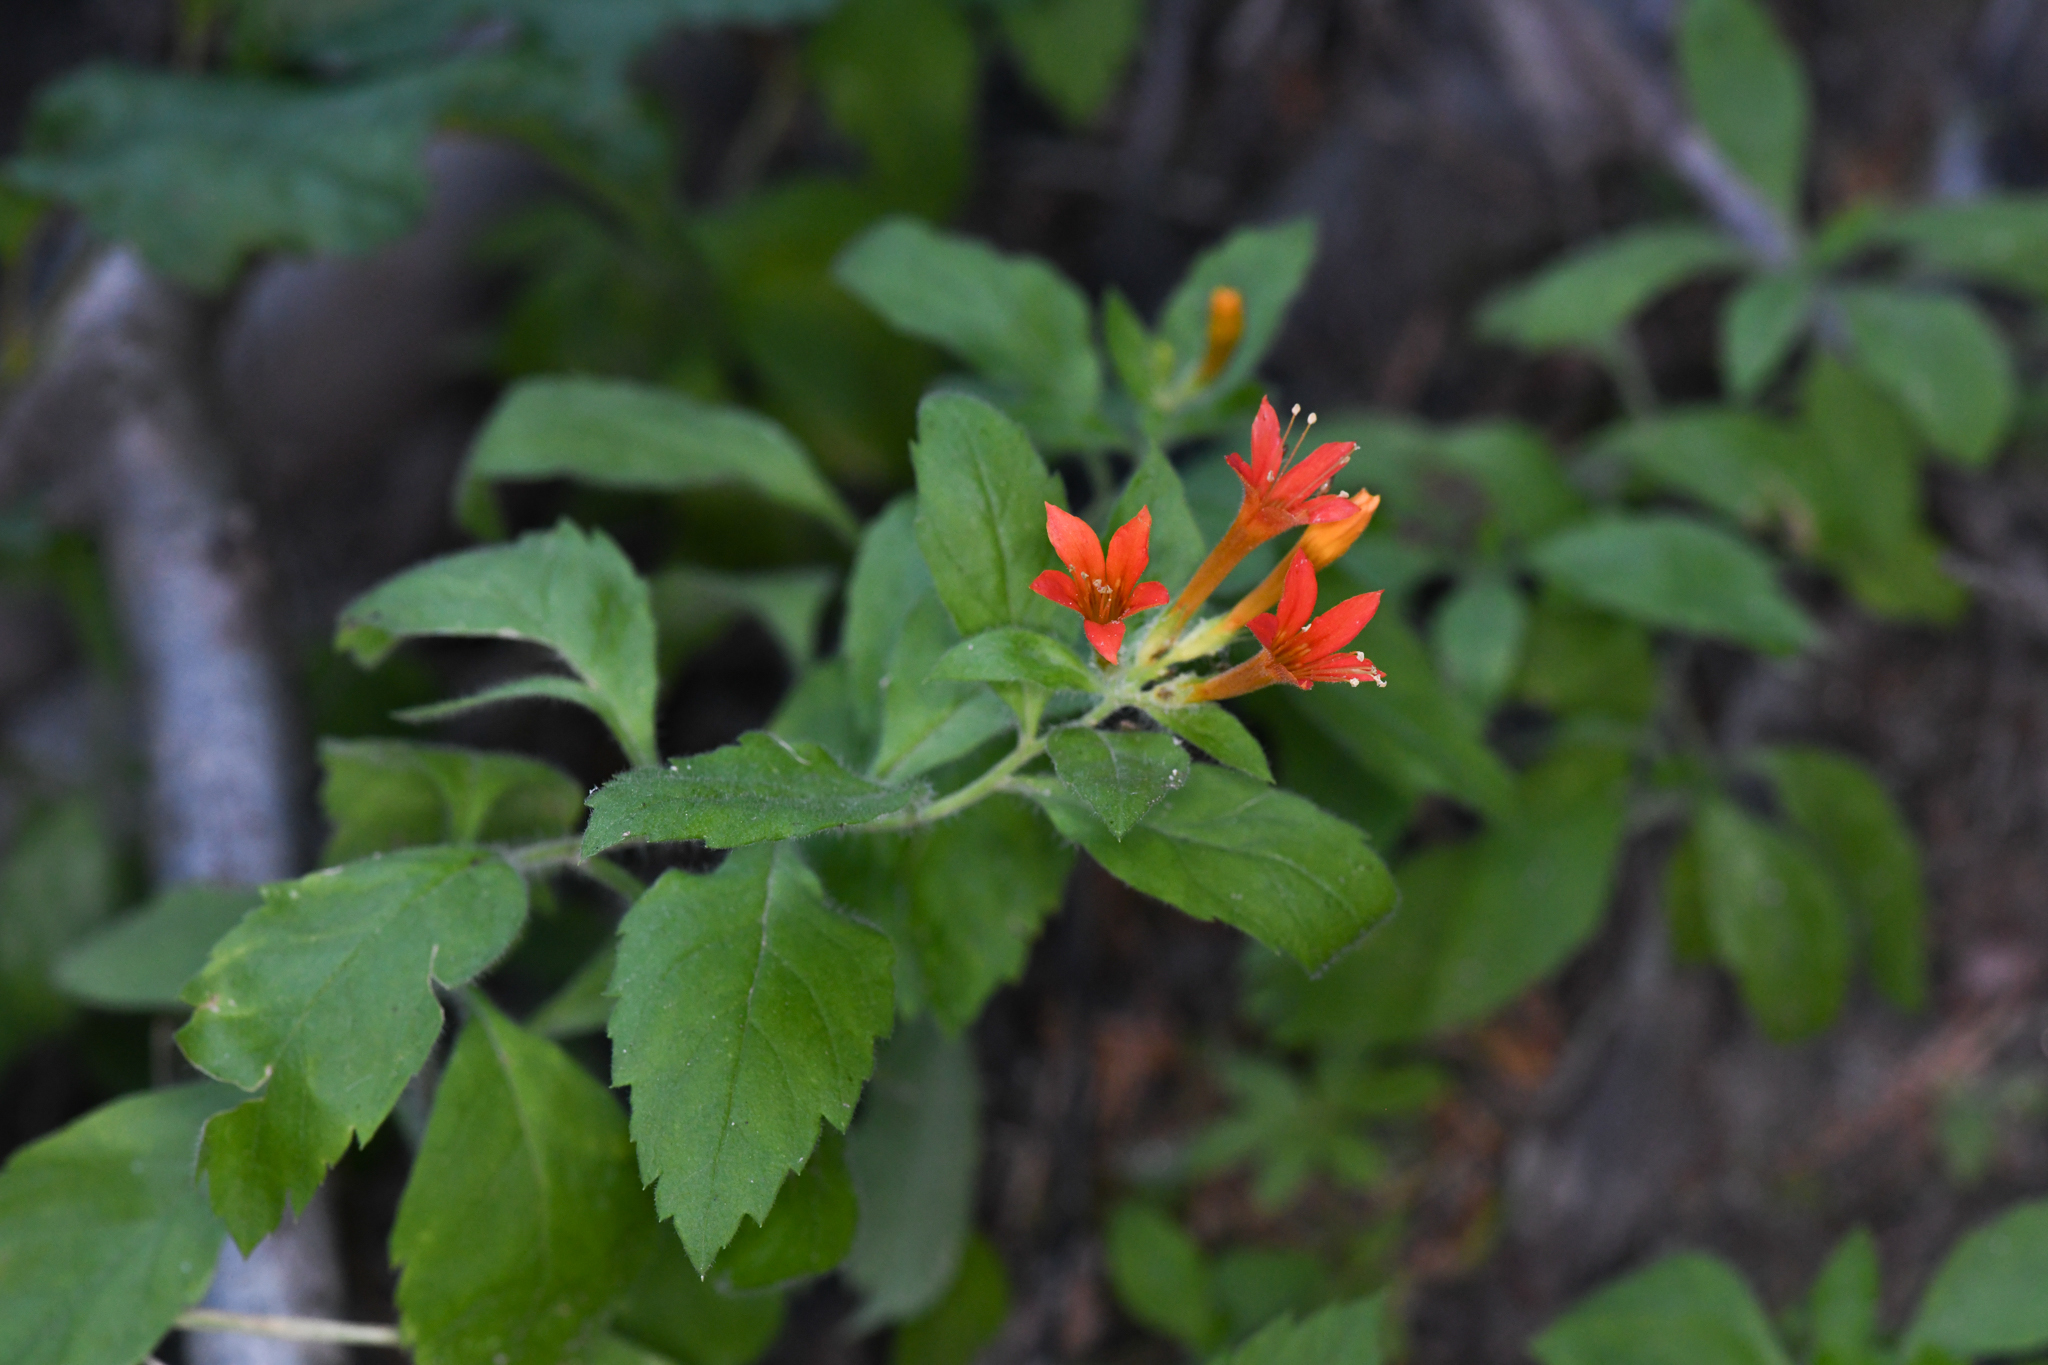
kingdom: Plantae
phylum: Tracheophyta
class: Magnoliopsida
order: Ericales
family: Polemoniaceae
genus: Collomia
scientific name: Collomia rawsoniana
